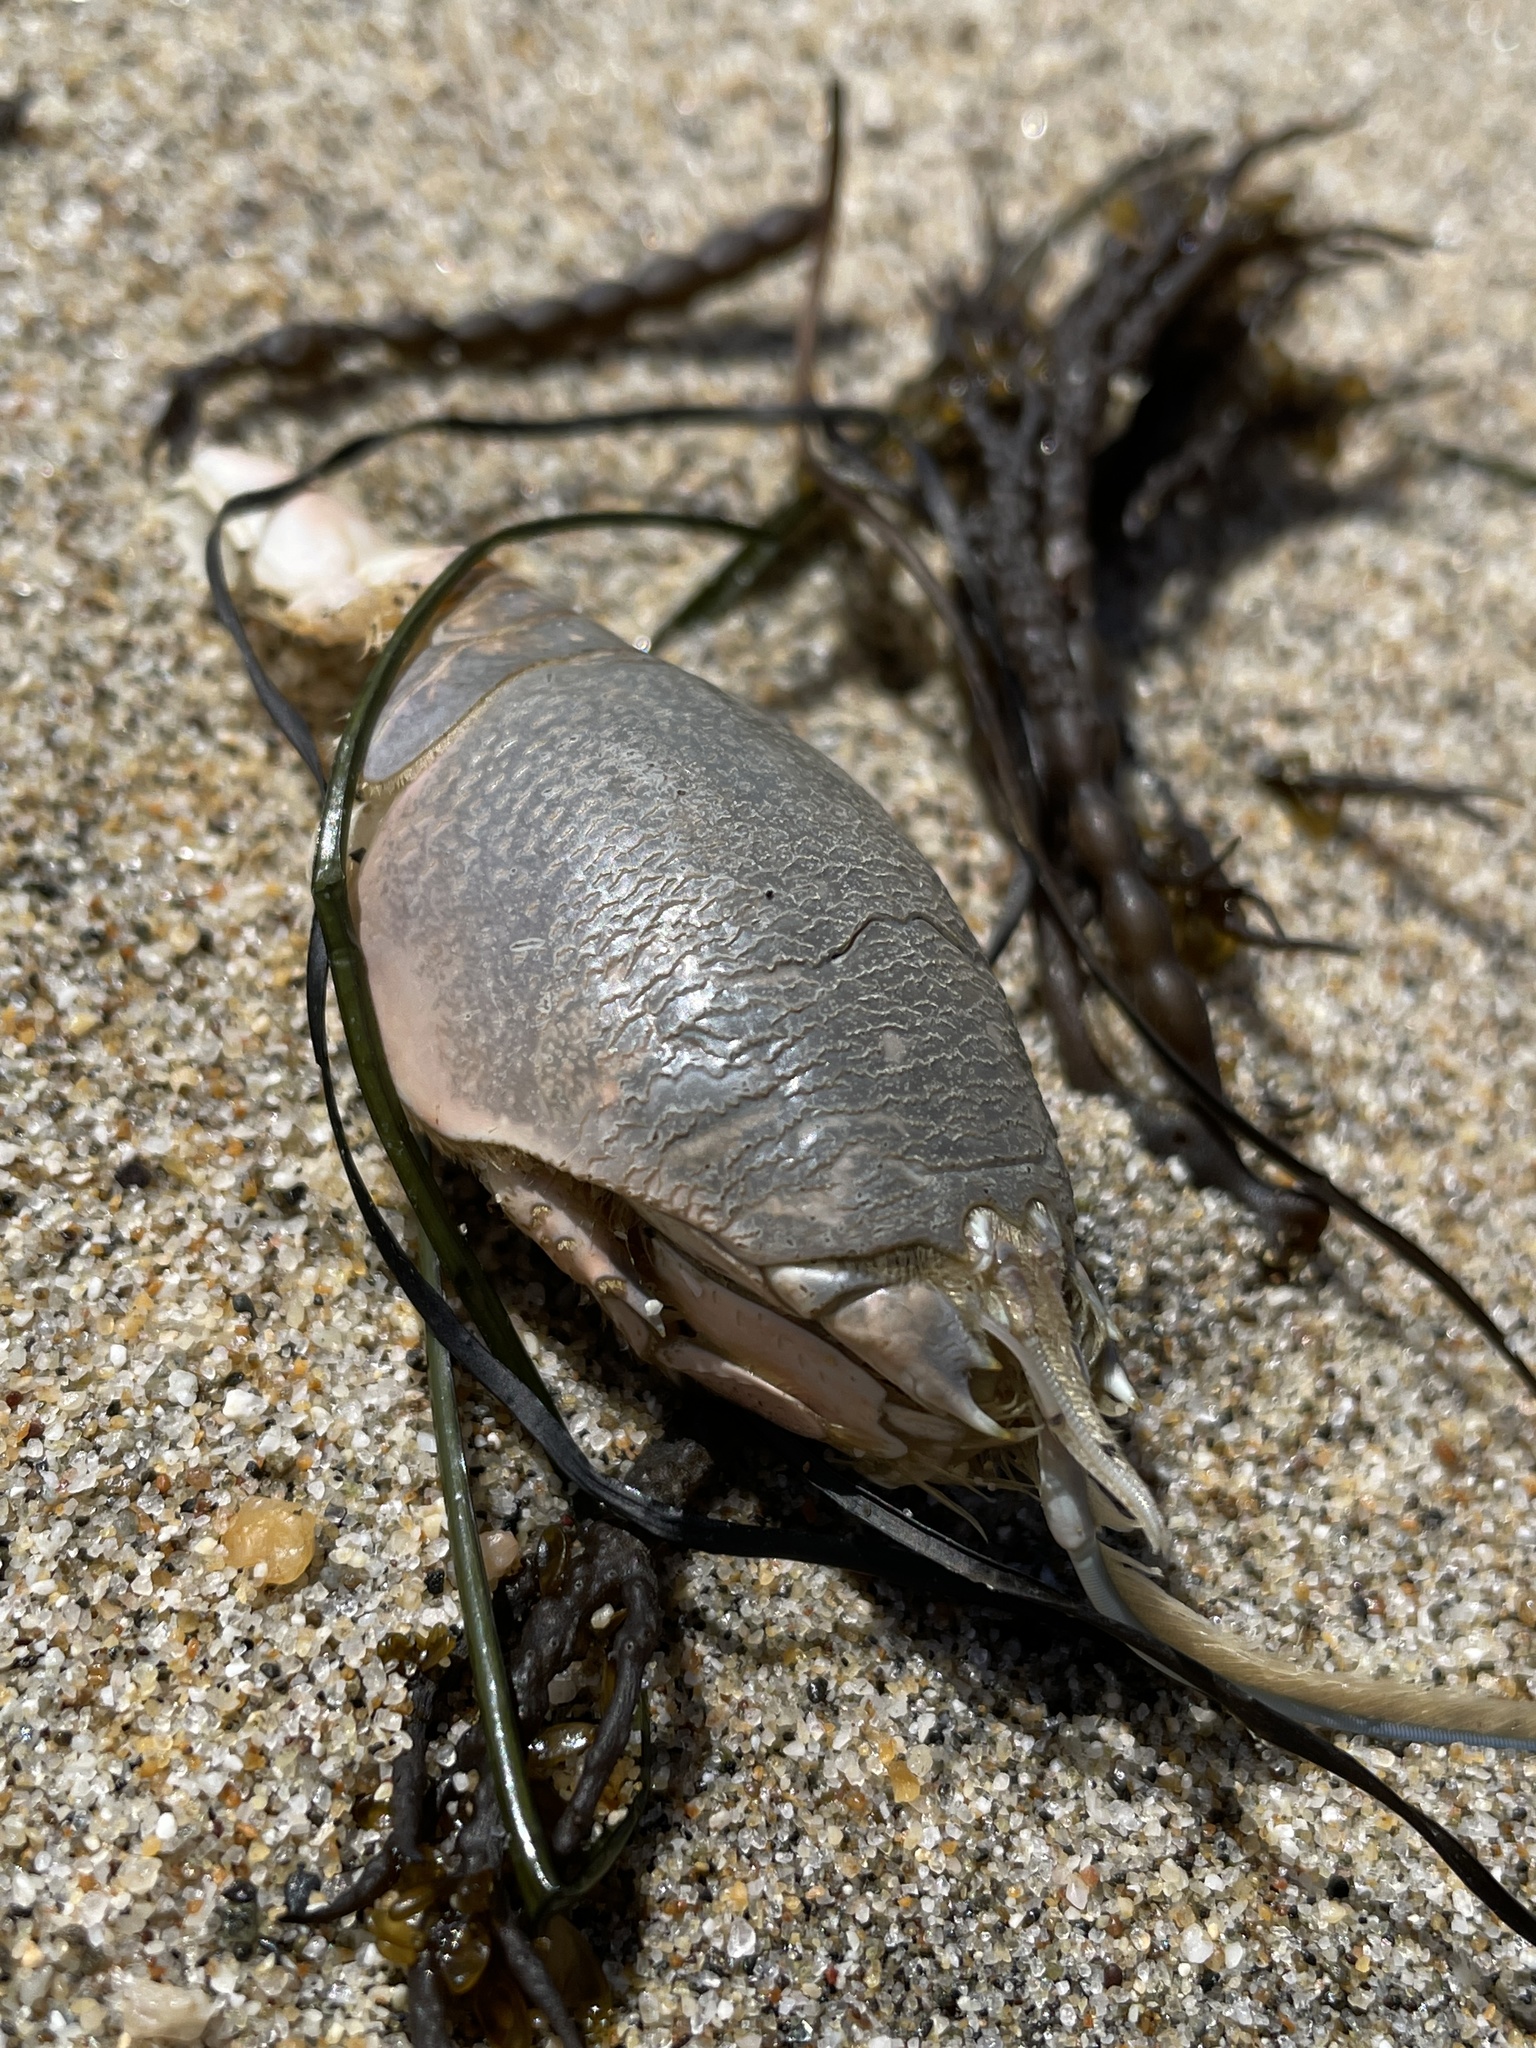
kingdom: Animalia
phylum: Arthropoda
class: Malacostraca
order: Decapoda
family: Hippidae
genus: Emerita
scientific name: Emerita analoga
